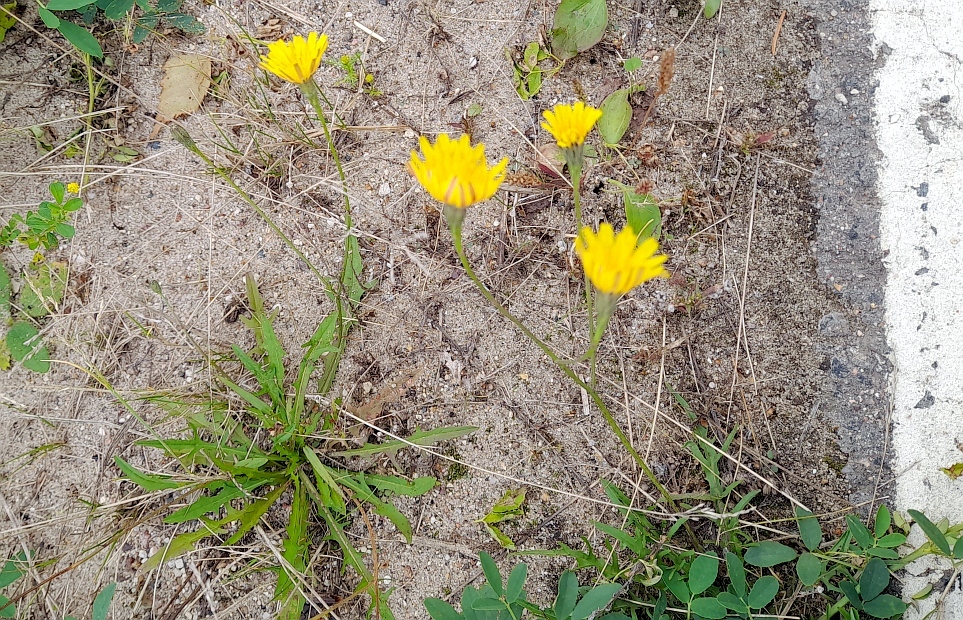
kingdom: Plantae
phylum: Tracheophyta
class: Magnoliopsida
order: Asterales
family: Asteraceae
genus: Scorzoneroides
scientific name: Scorzoneroides autumnalis
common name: Autumn hawkbit
